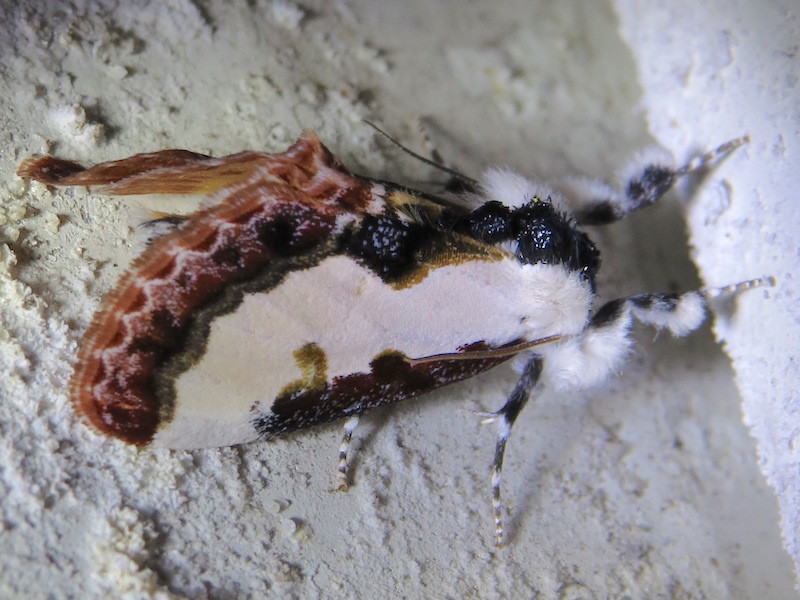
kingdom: Animalia
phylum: Arthropoda
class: Insecta
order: Lepidoptera
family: Noctuidae
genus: Eudryas
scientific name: Eudryas unio
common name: Pearly wood-nymph
